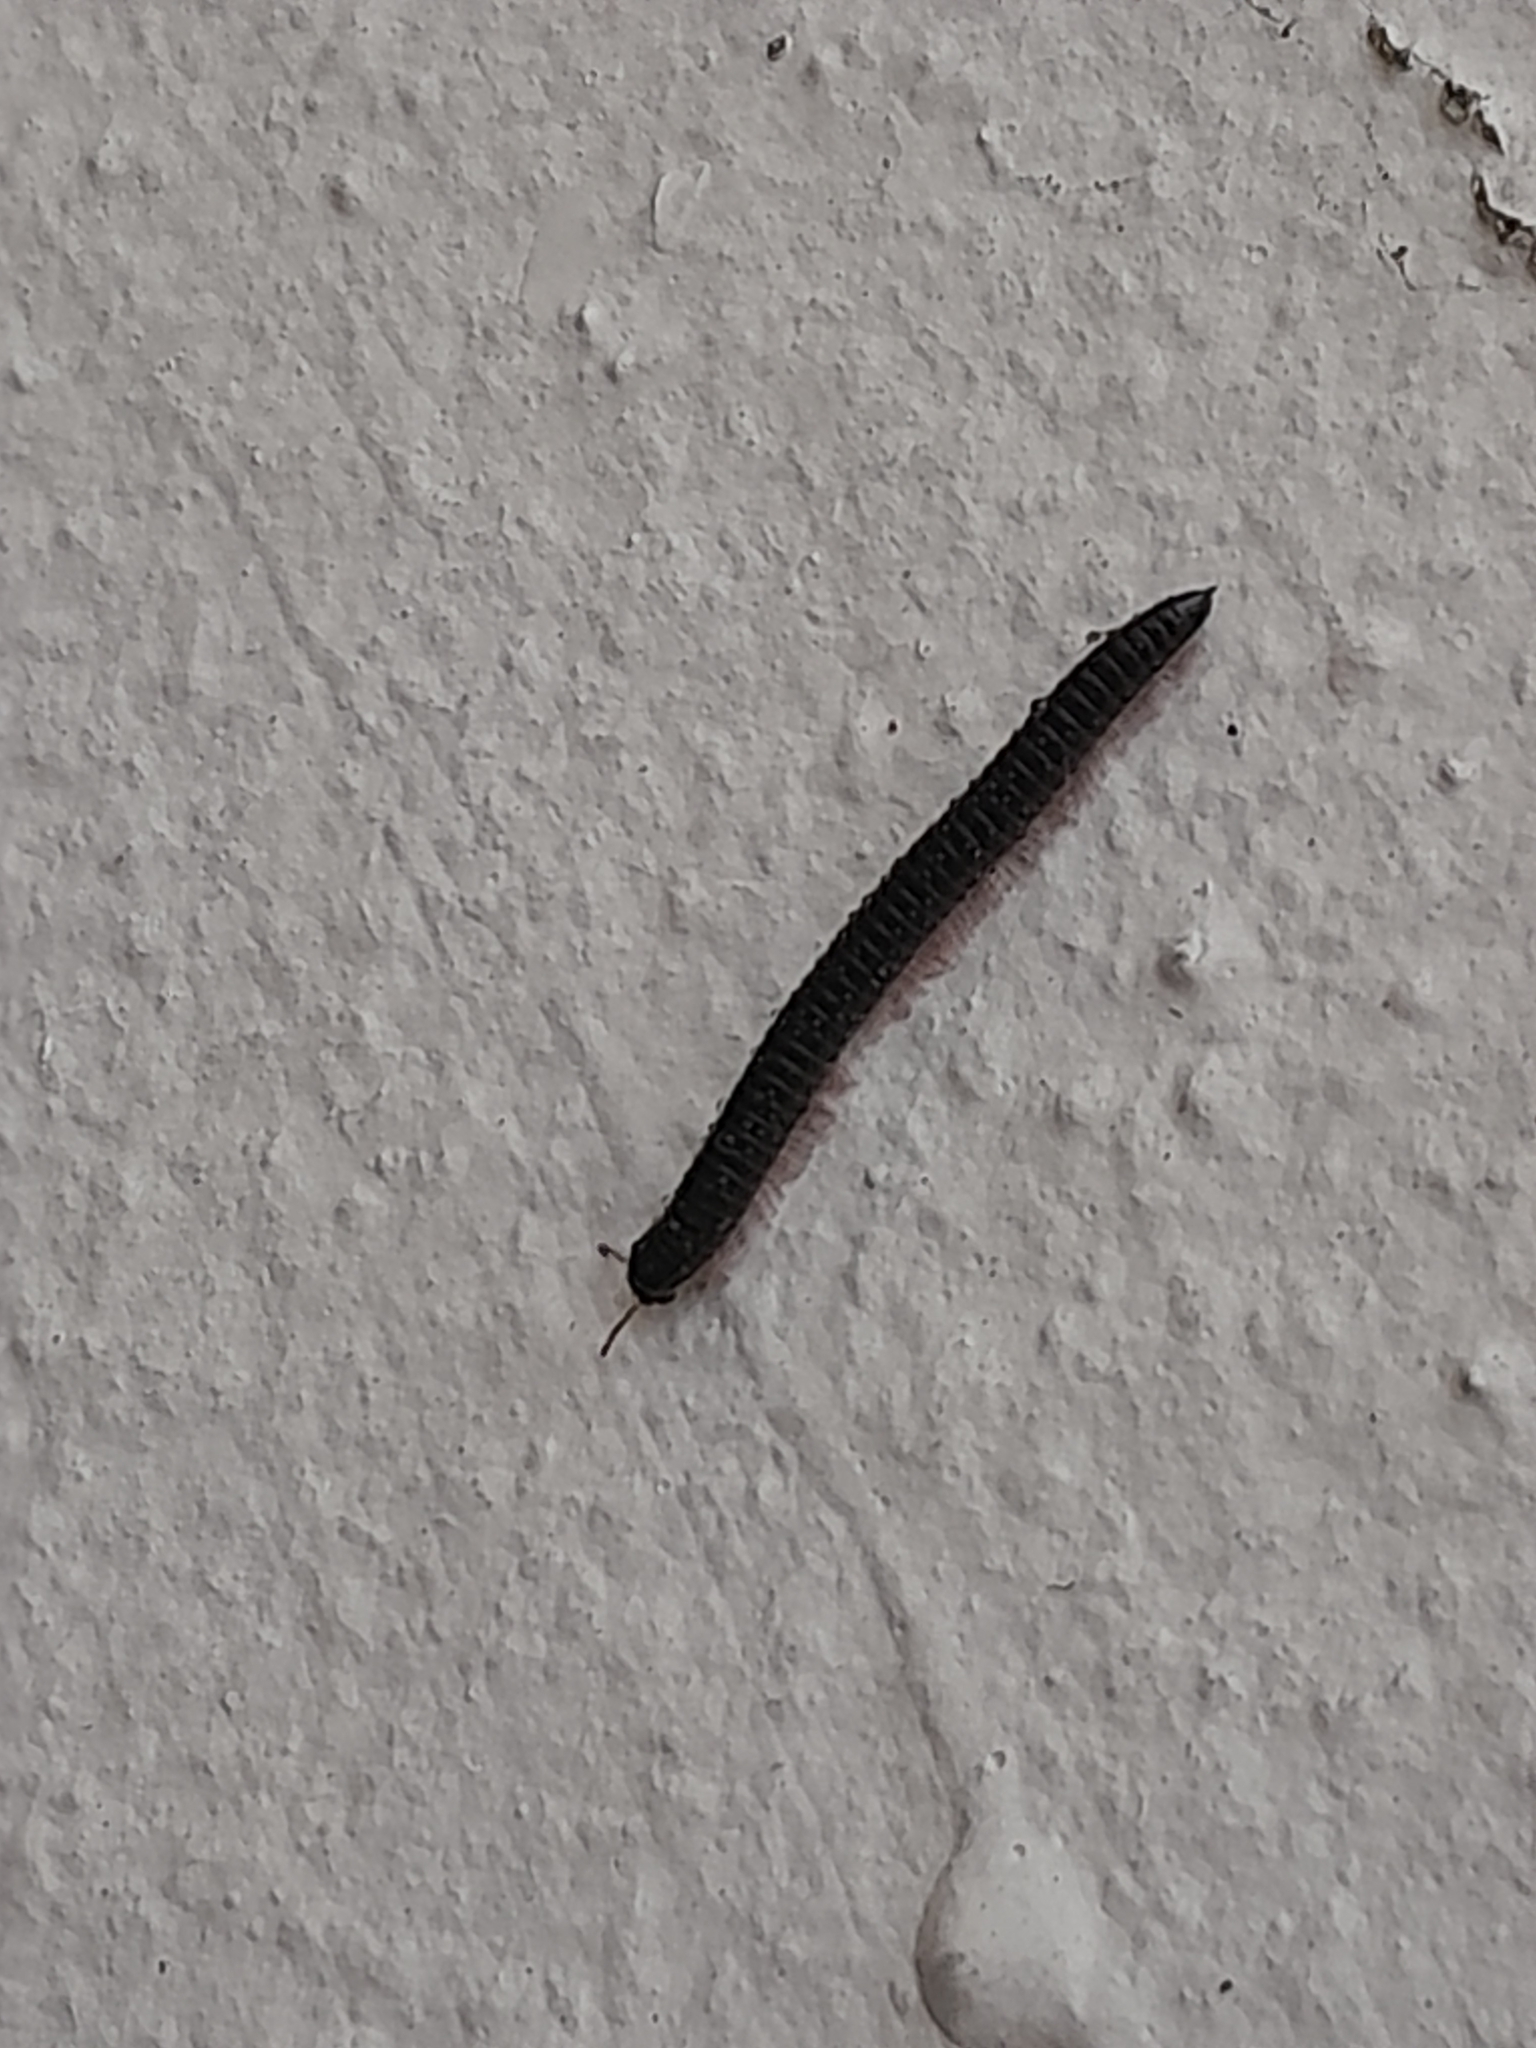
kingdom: Animalia
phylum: Arthropoda
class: Diplopoda
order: Julida
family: Julidae
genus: Ommatoiulus
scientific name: Ommatoiulus moreleti
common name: Portuguese millipede
